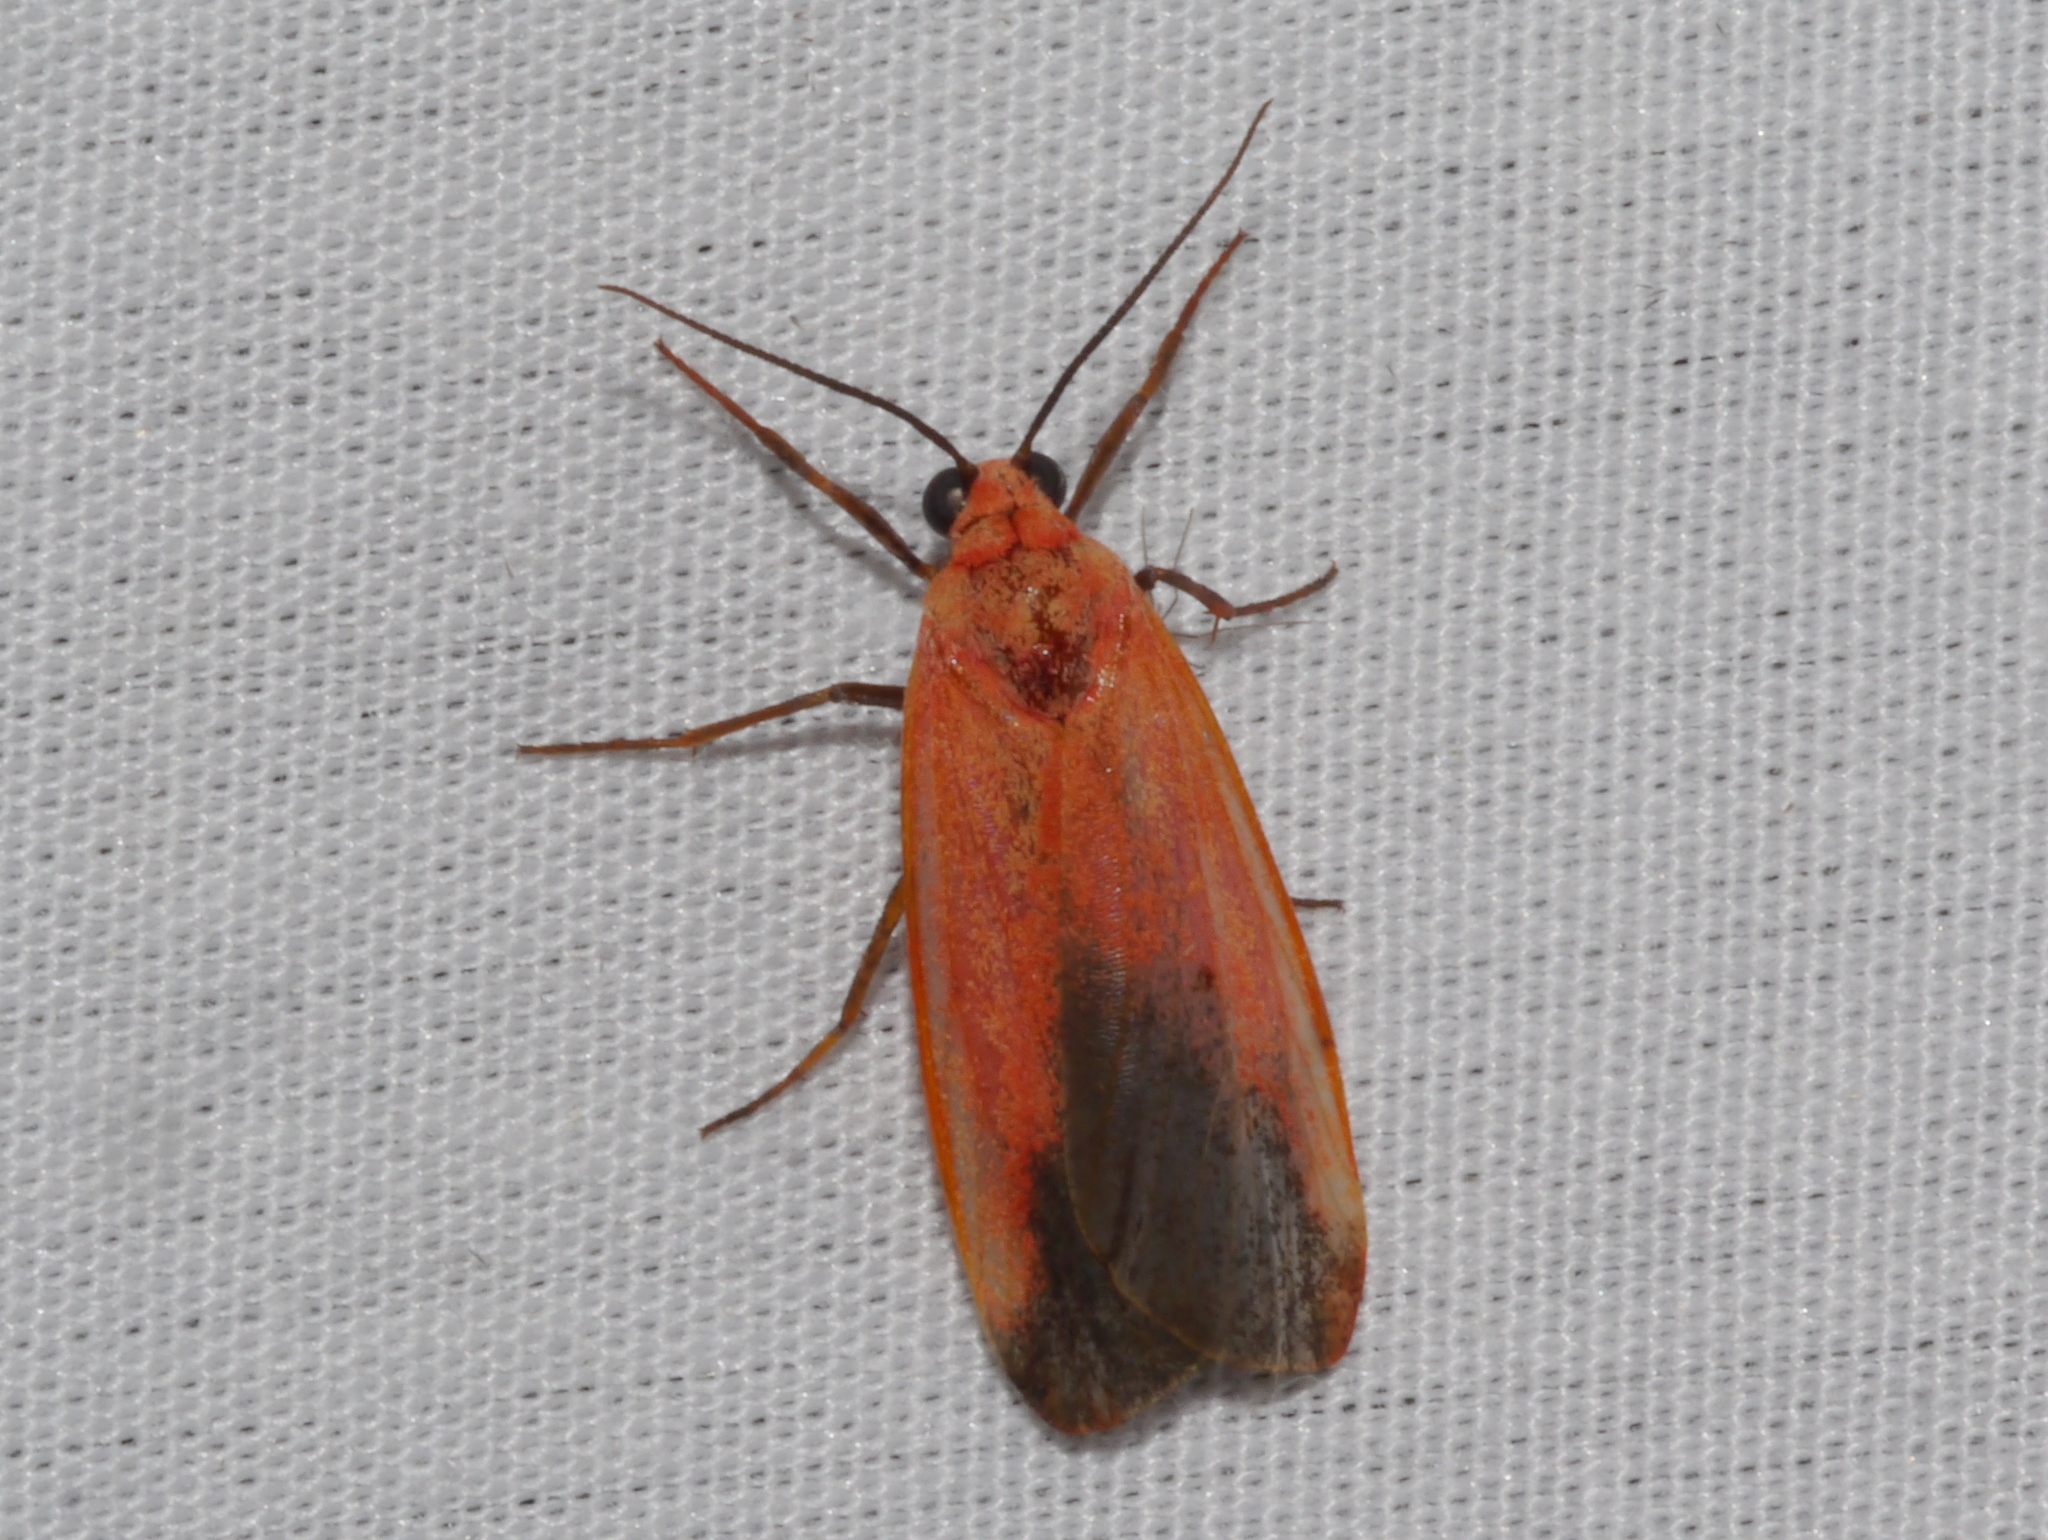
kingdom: Animalia
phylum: Arthropoda
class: Insecta
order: Lepidoptera
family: Erebidae
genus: Ptychoglene
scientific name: Ptychoglene coccinea
